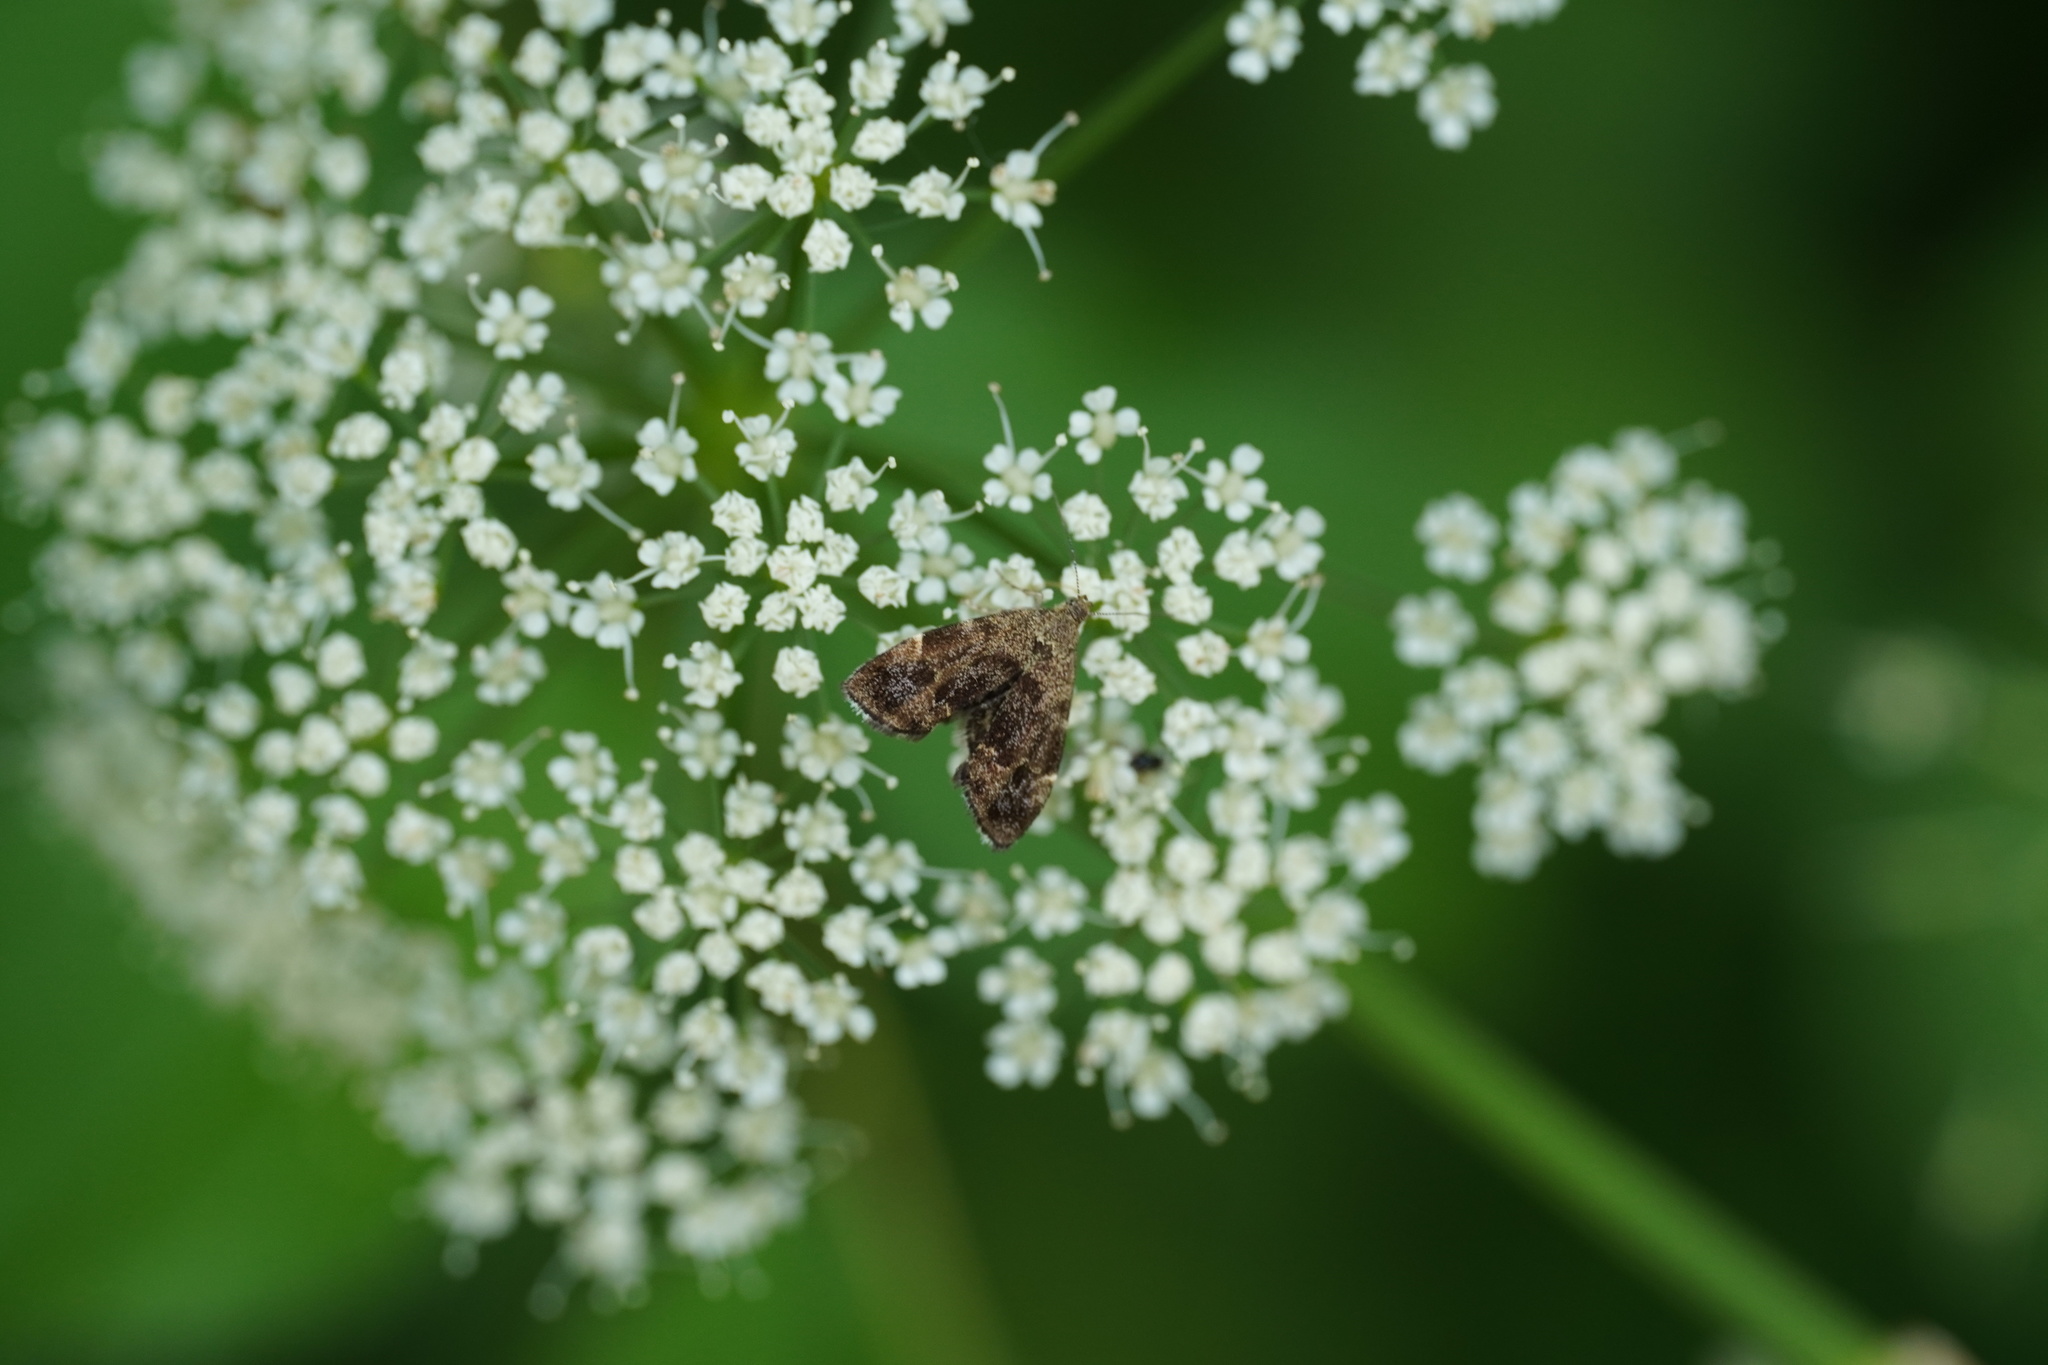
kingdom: Animalia
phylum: Arthropoda
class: Insecta
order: Lepidoptera
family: Choreutidae
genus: Anthophila
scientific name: Anthophila fabriciana
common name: Nettle-tap
